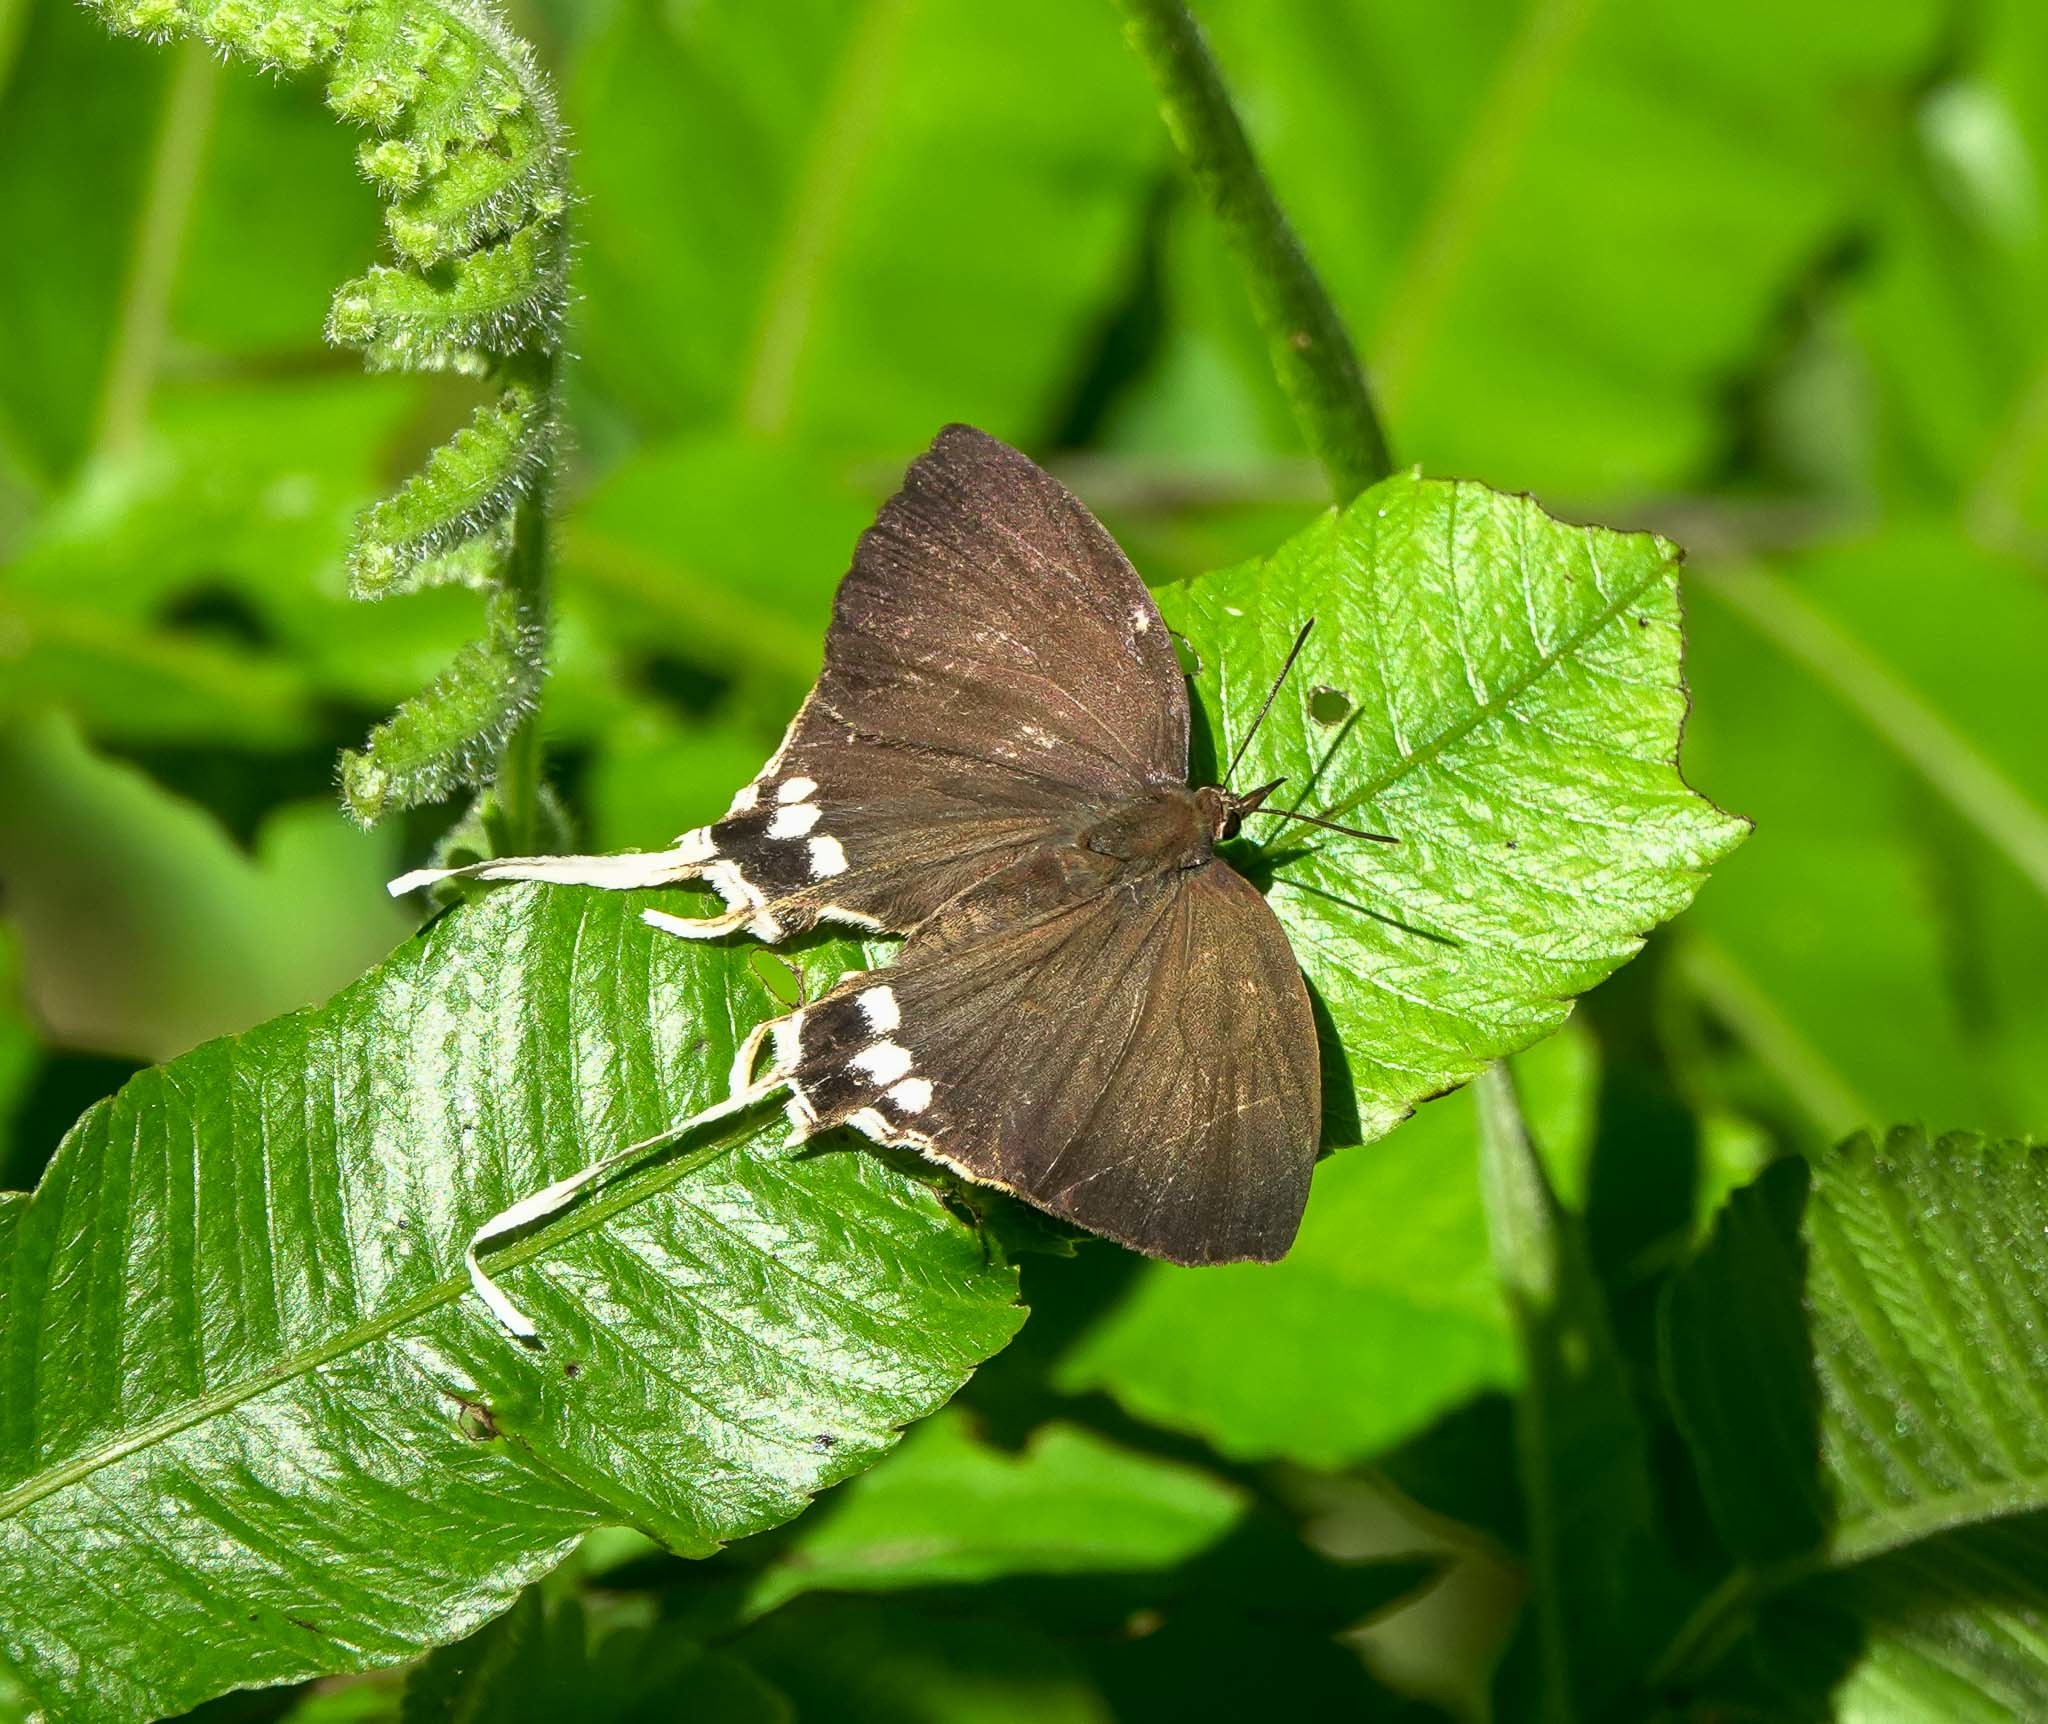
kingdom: Animalia
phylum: Arthropoda
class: Insecta
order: Lepidoptera
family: Lycaenidae
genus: Cheritra
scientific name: Cheritra freja
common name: Common imperial
